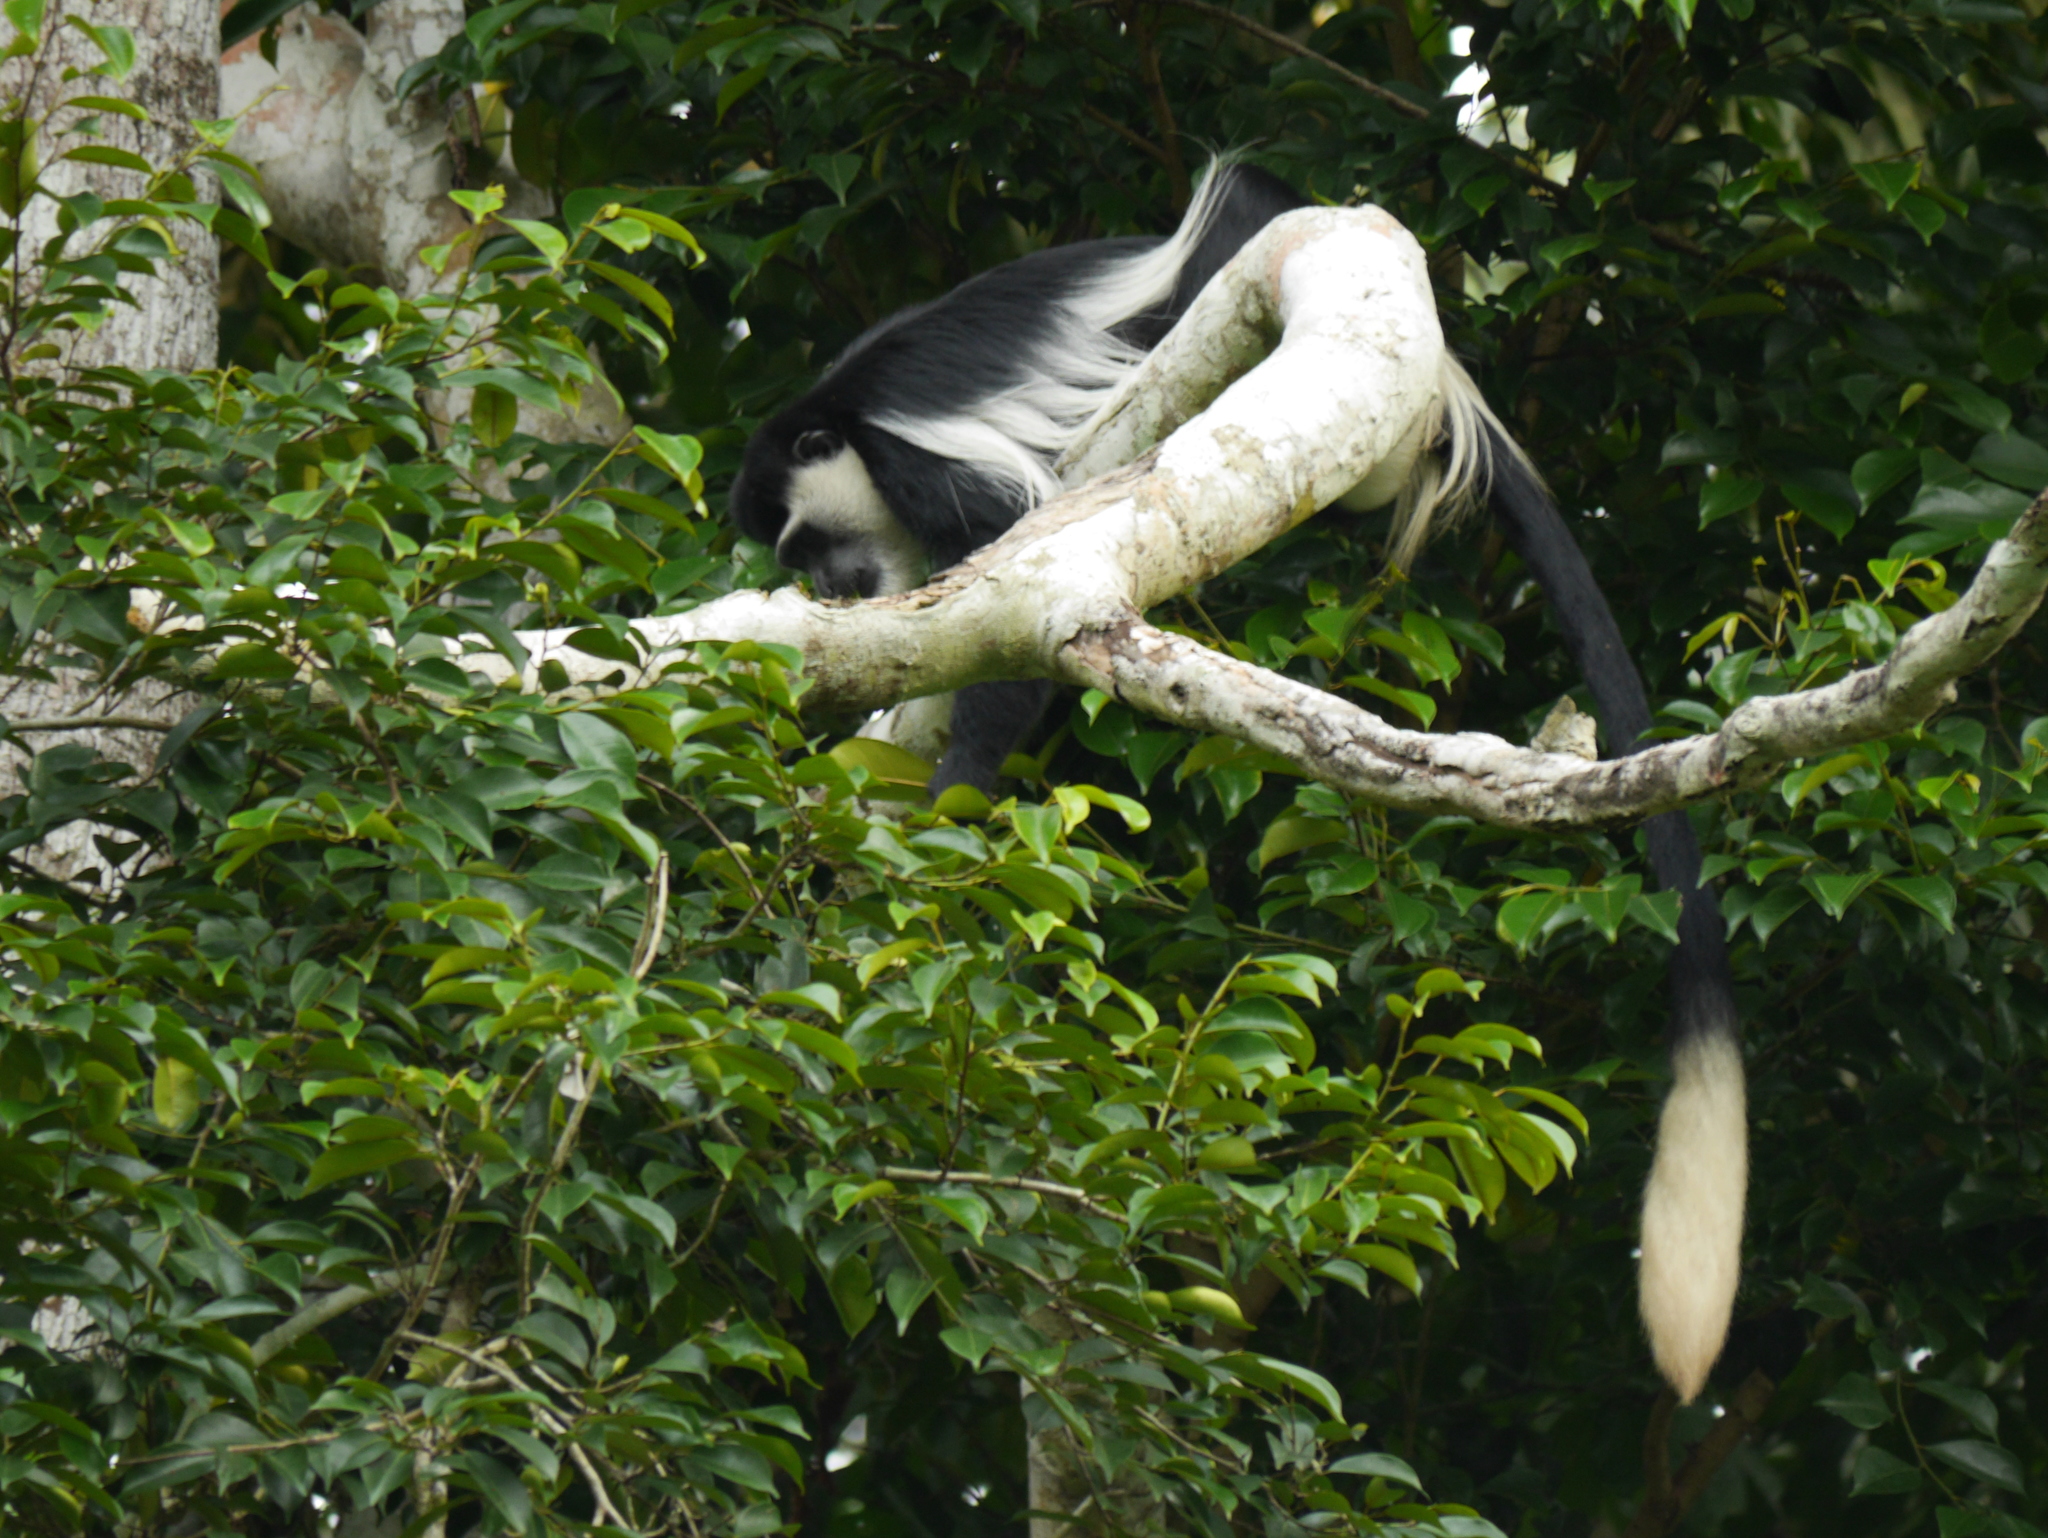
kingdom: Animalia
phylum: Chordata
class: Mammalia
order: Primates
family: Cercopithecidae
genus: Colobus
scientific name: Colobus guereza
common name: Mantled guereza
